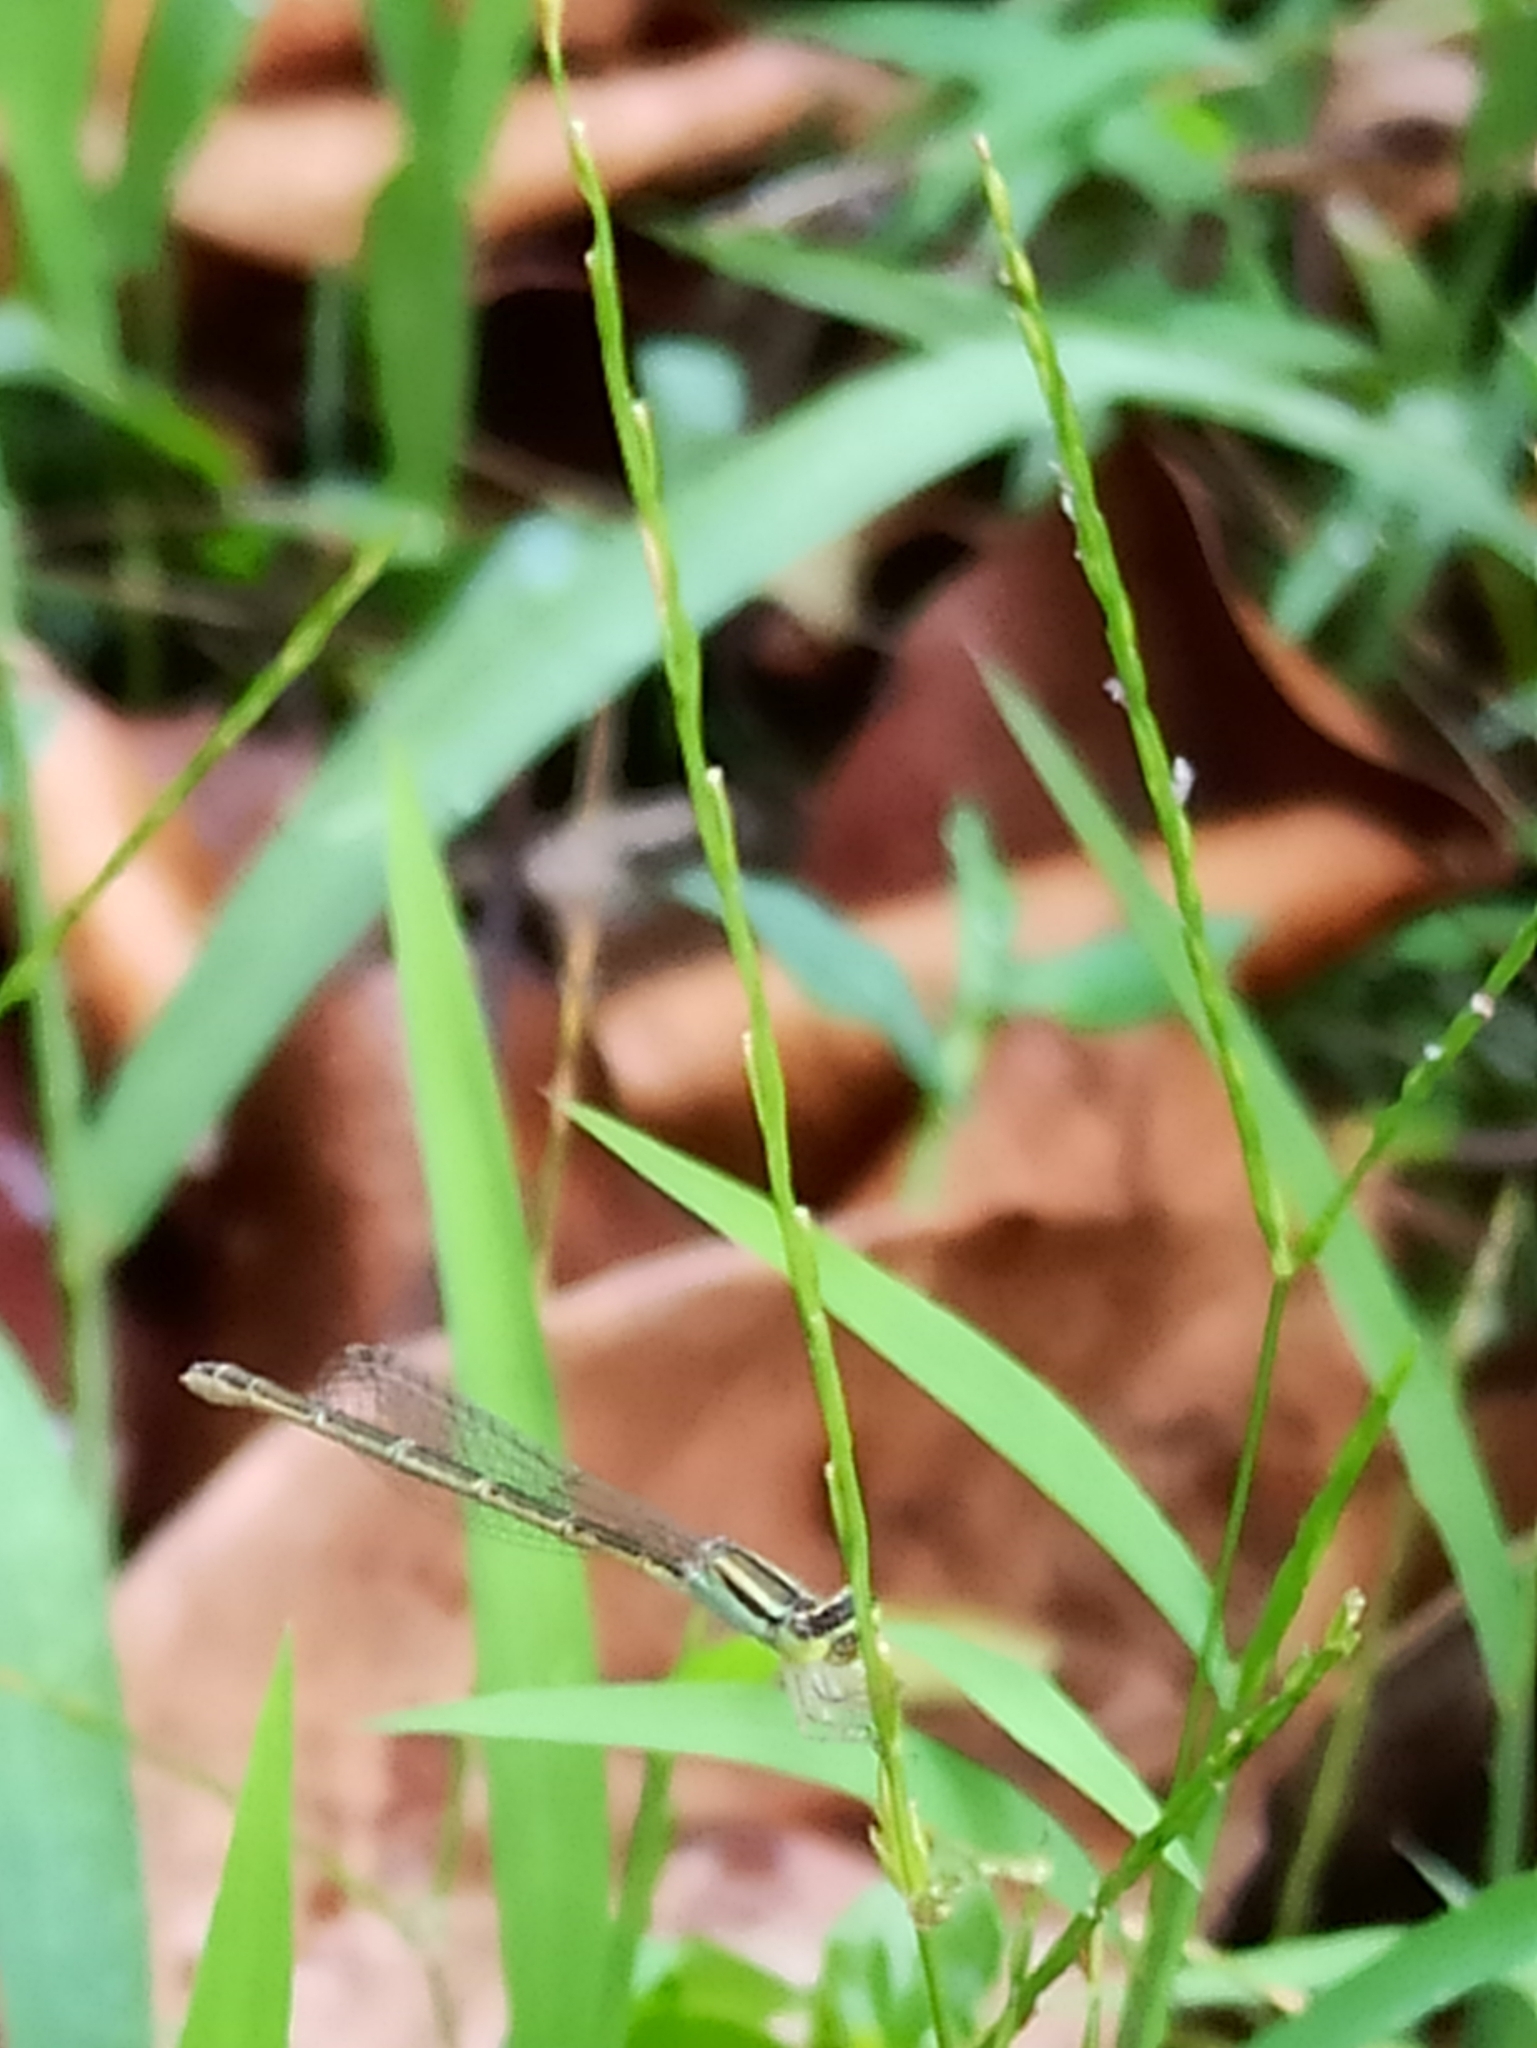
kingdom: Animalia
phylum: Arthropoda
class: Insecta
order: Odonata
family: Coenagrionidae
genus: Ischnura
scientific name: Ischnura rubilio
